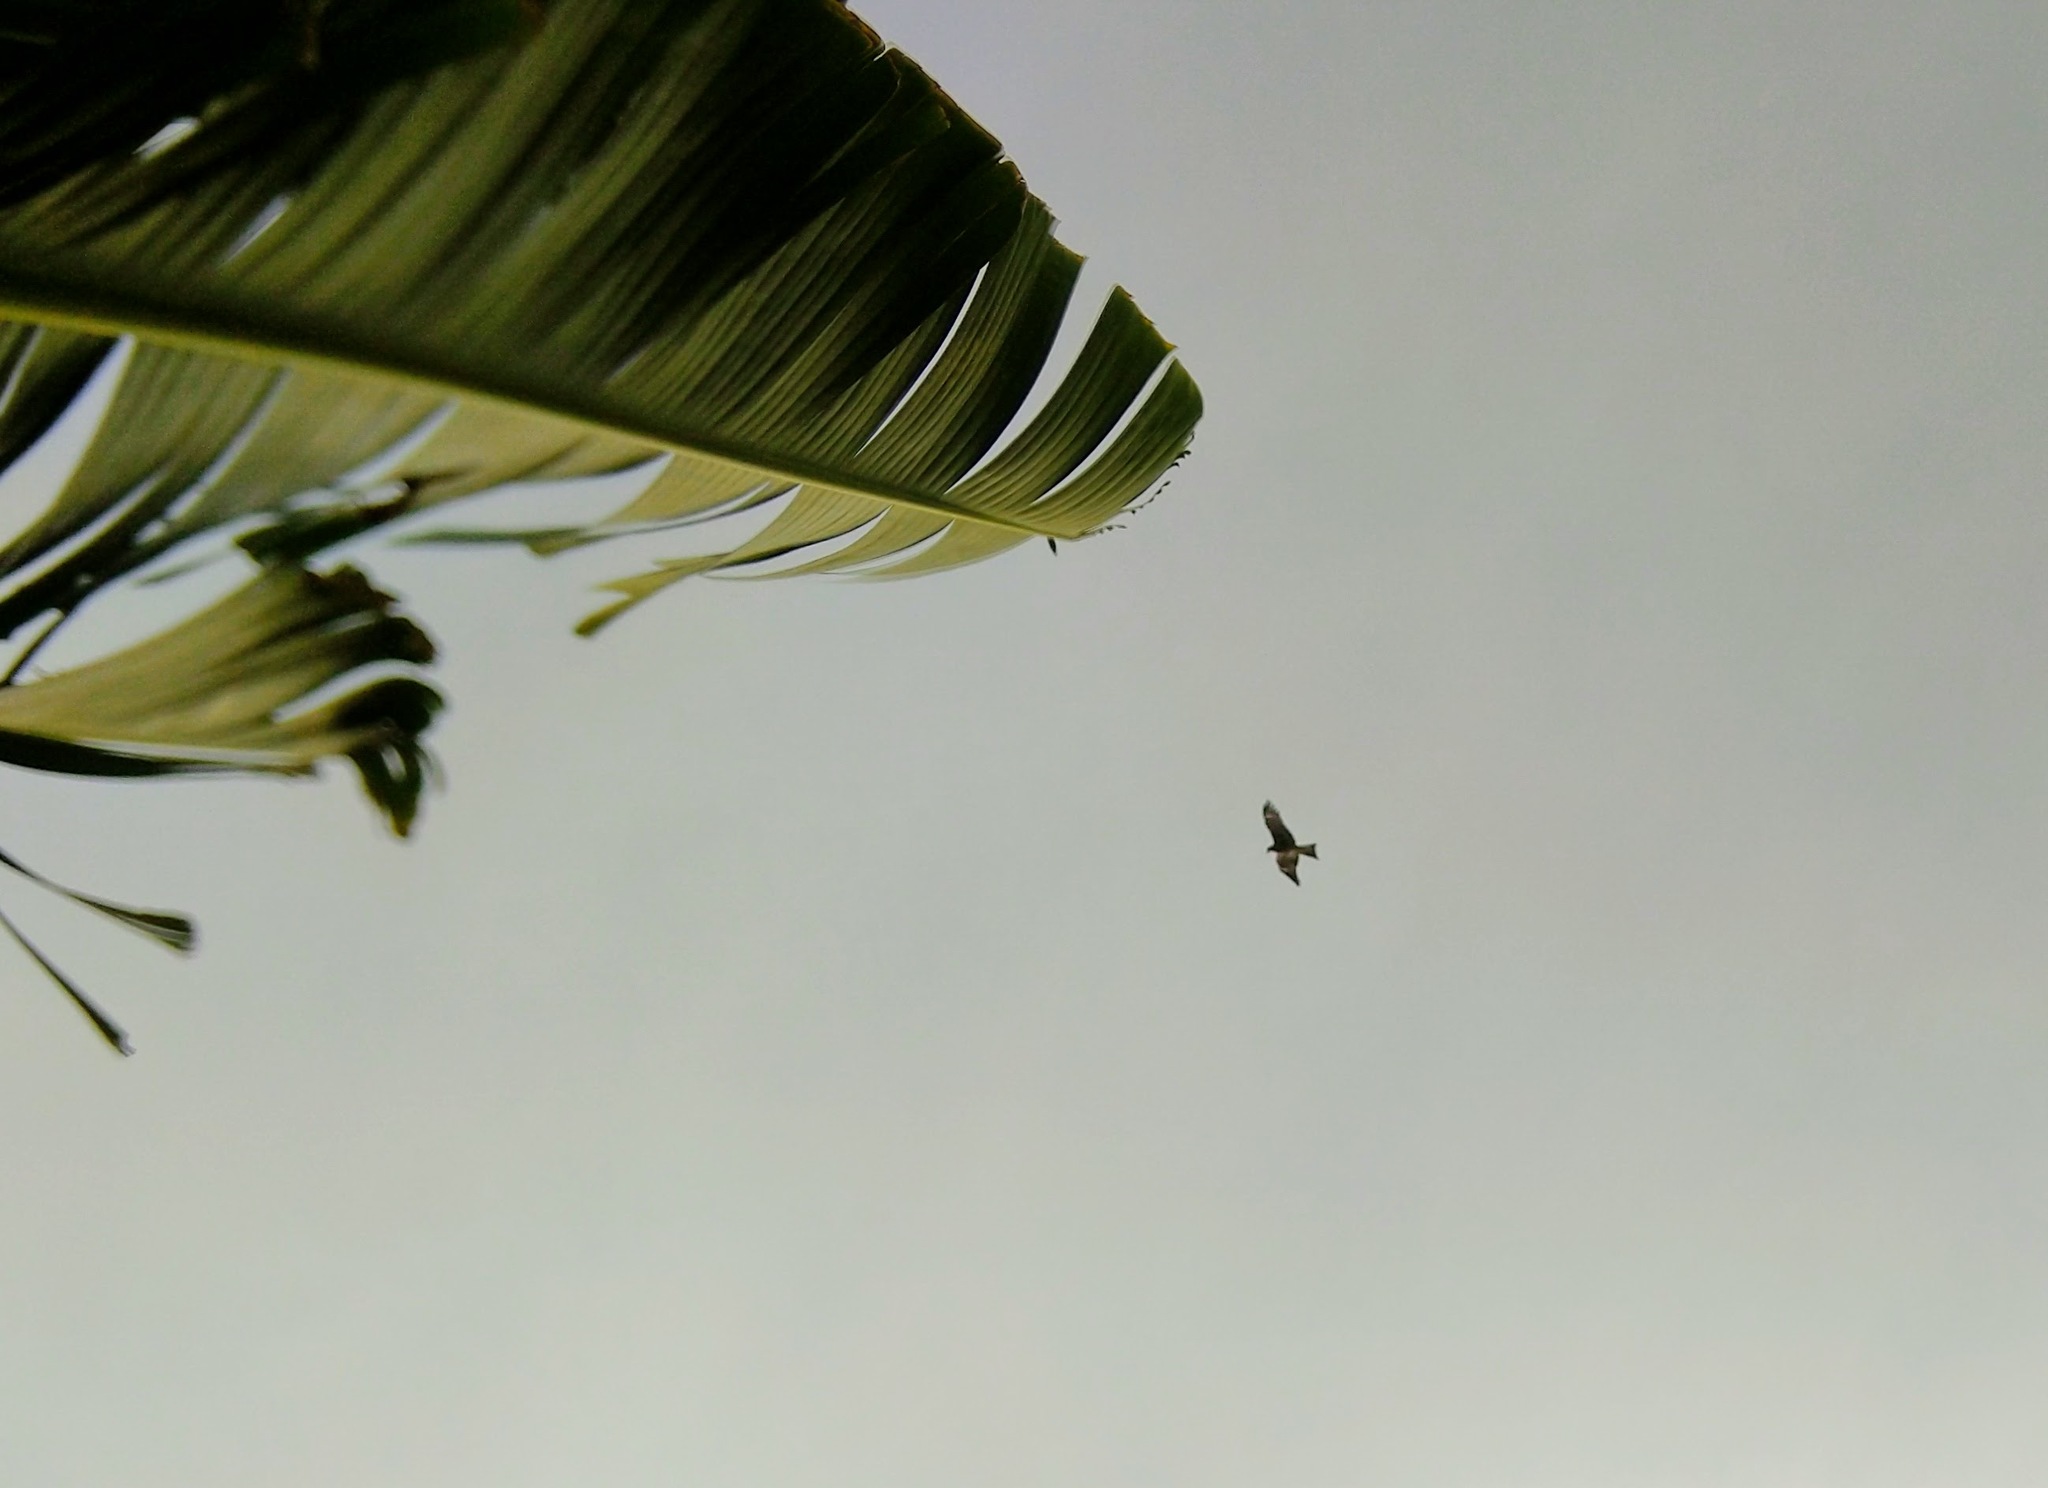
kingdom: Animalia
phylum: Chordata
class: Aves
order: Accipitriformes
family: Accipitridae
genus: Milvus
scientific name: Milvus migrans
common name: Black kite
